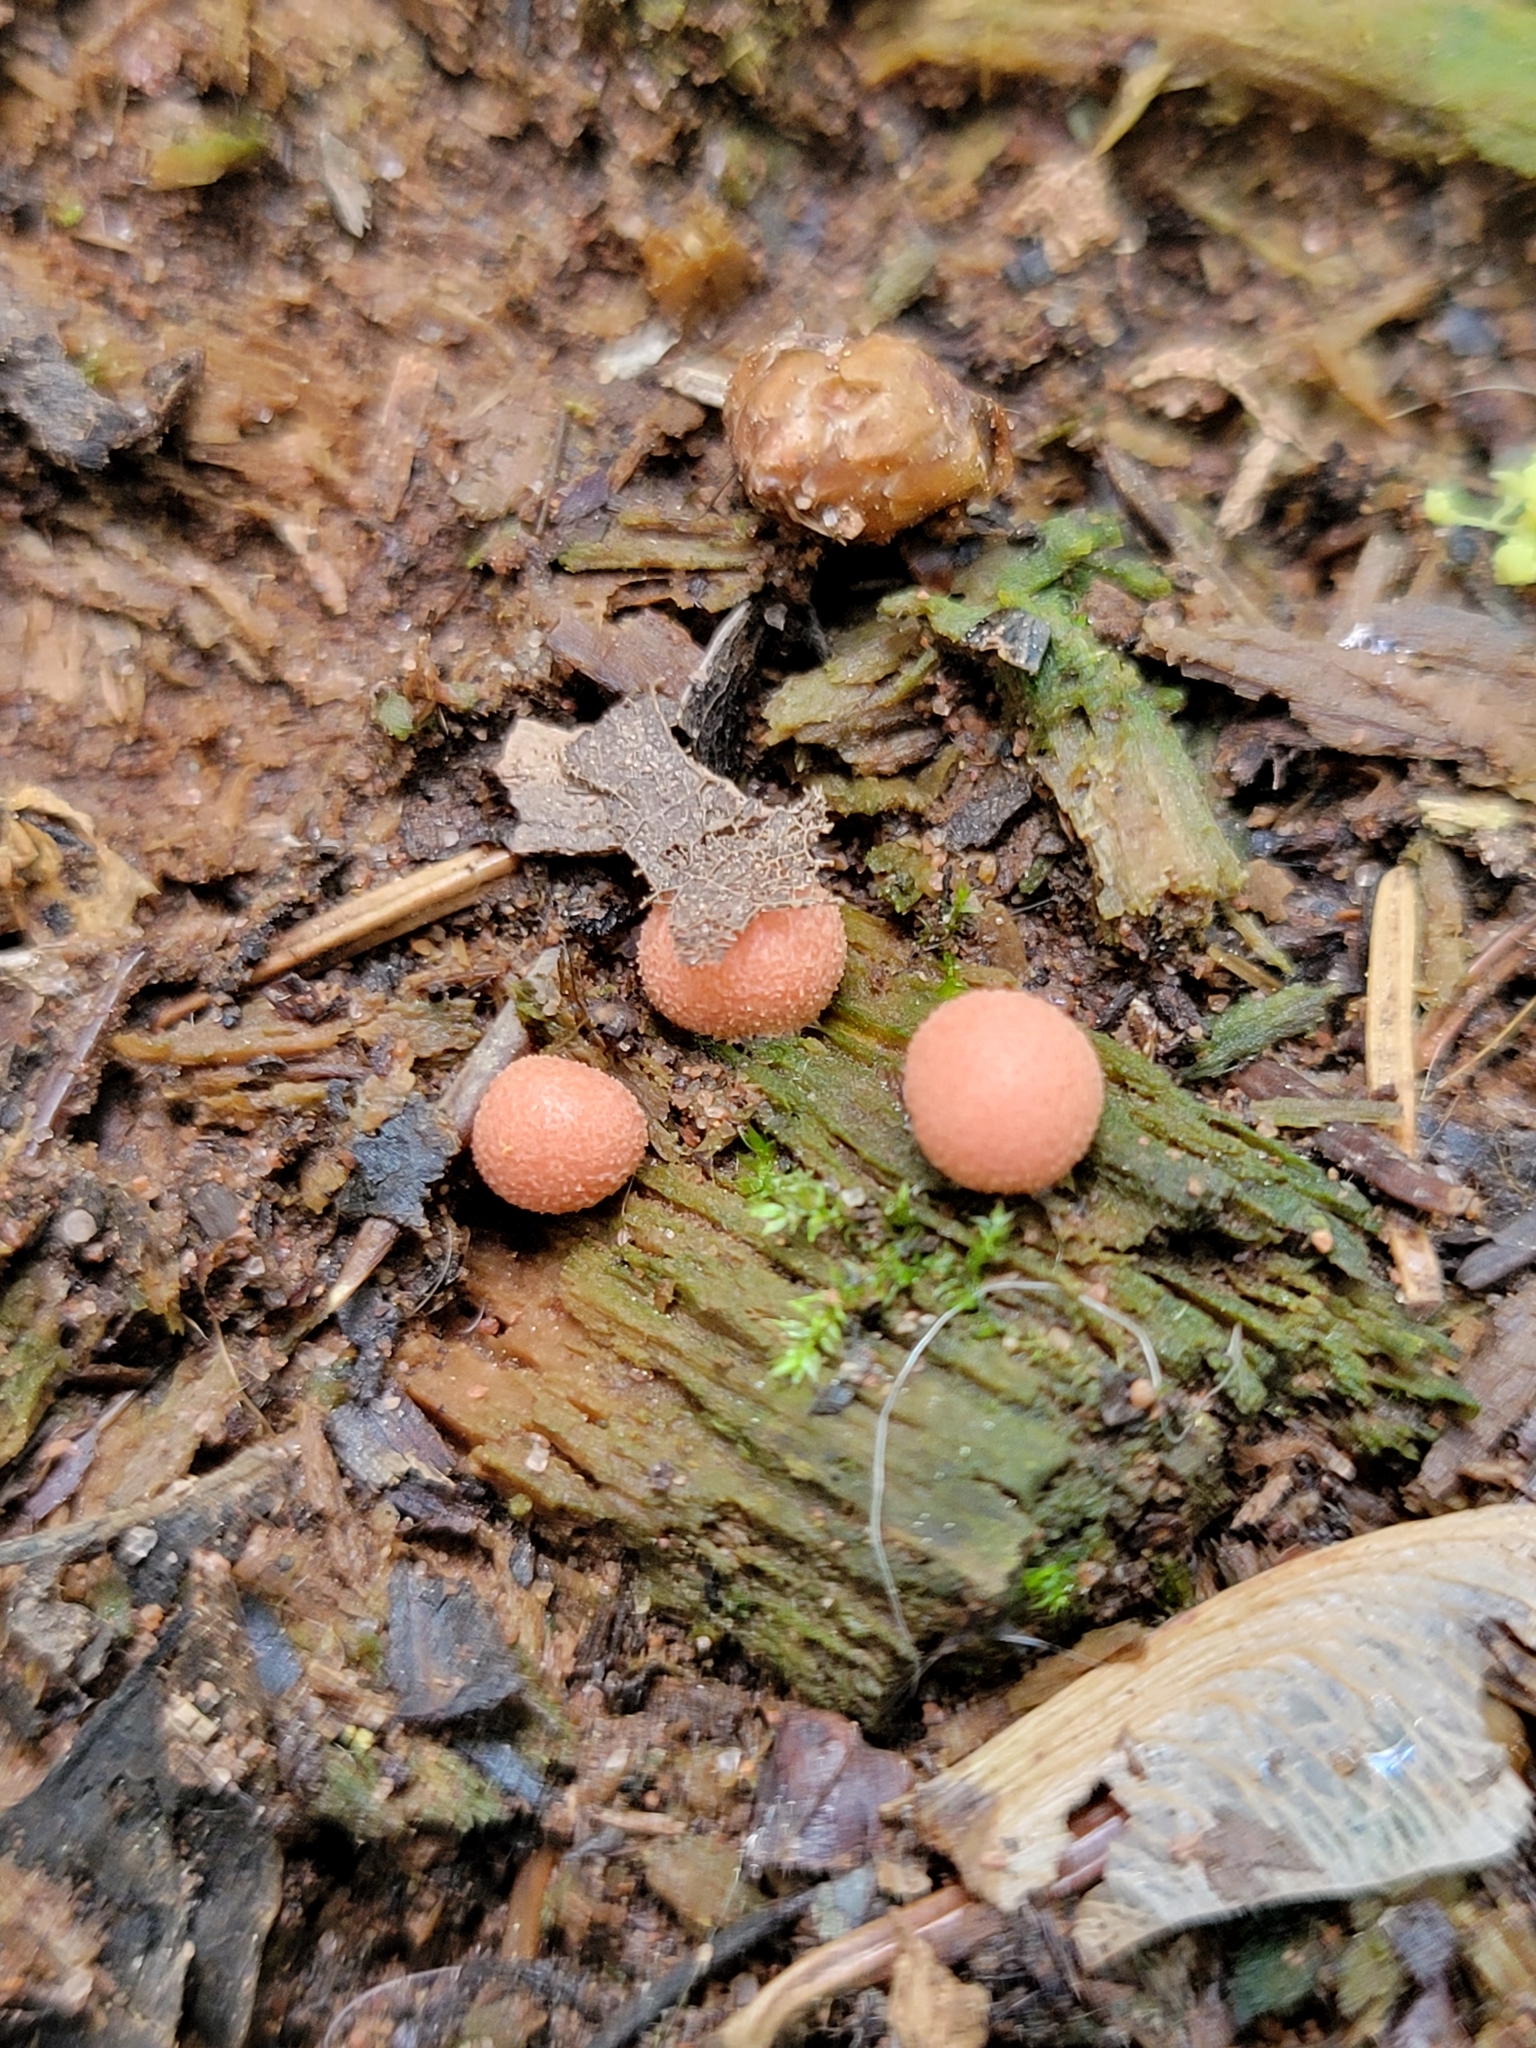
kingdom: Protozoa
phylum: Mycetozoa
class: Myxomycetes
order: Cribrariales
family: Tubiferaceae
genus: Lycogala
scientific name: Lycogala epidendrum
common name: Wolf's milk
